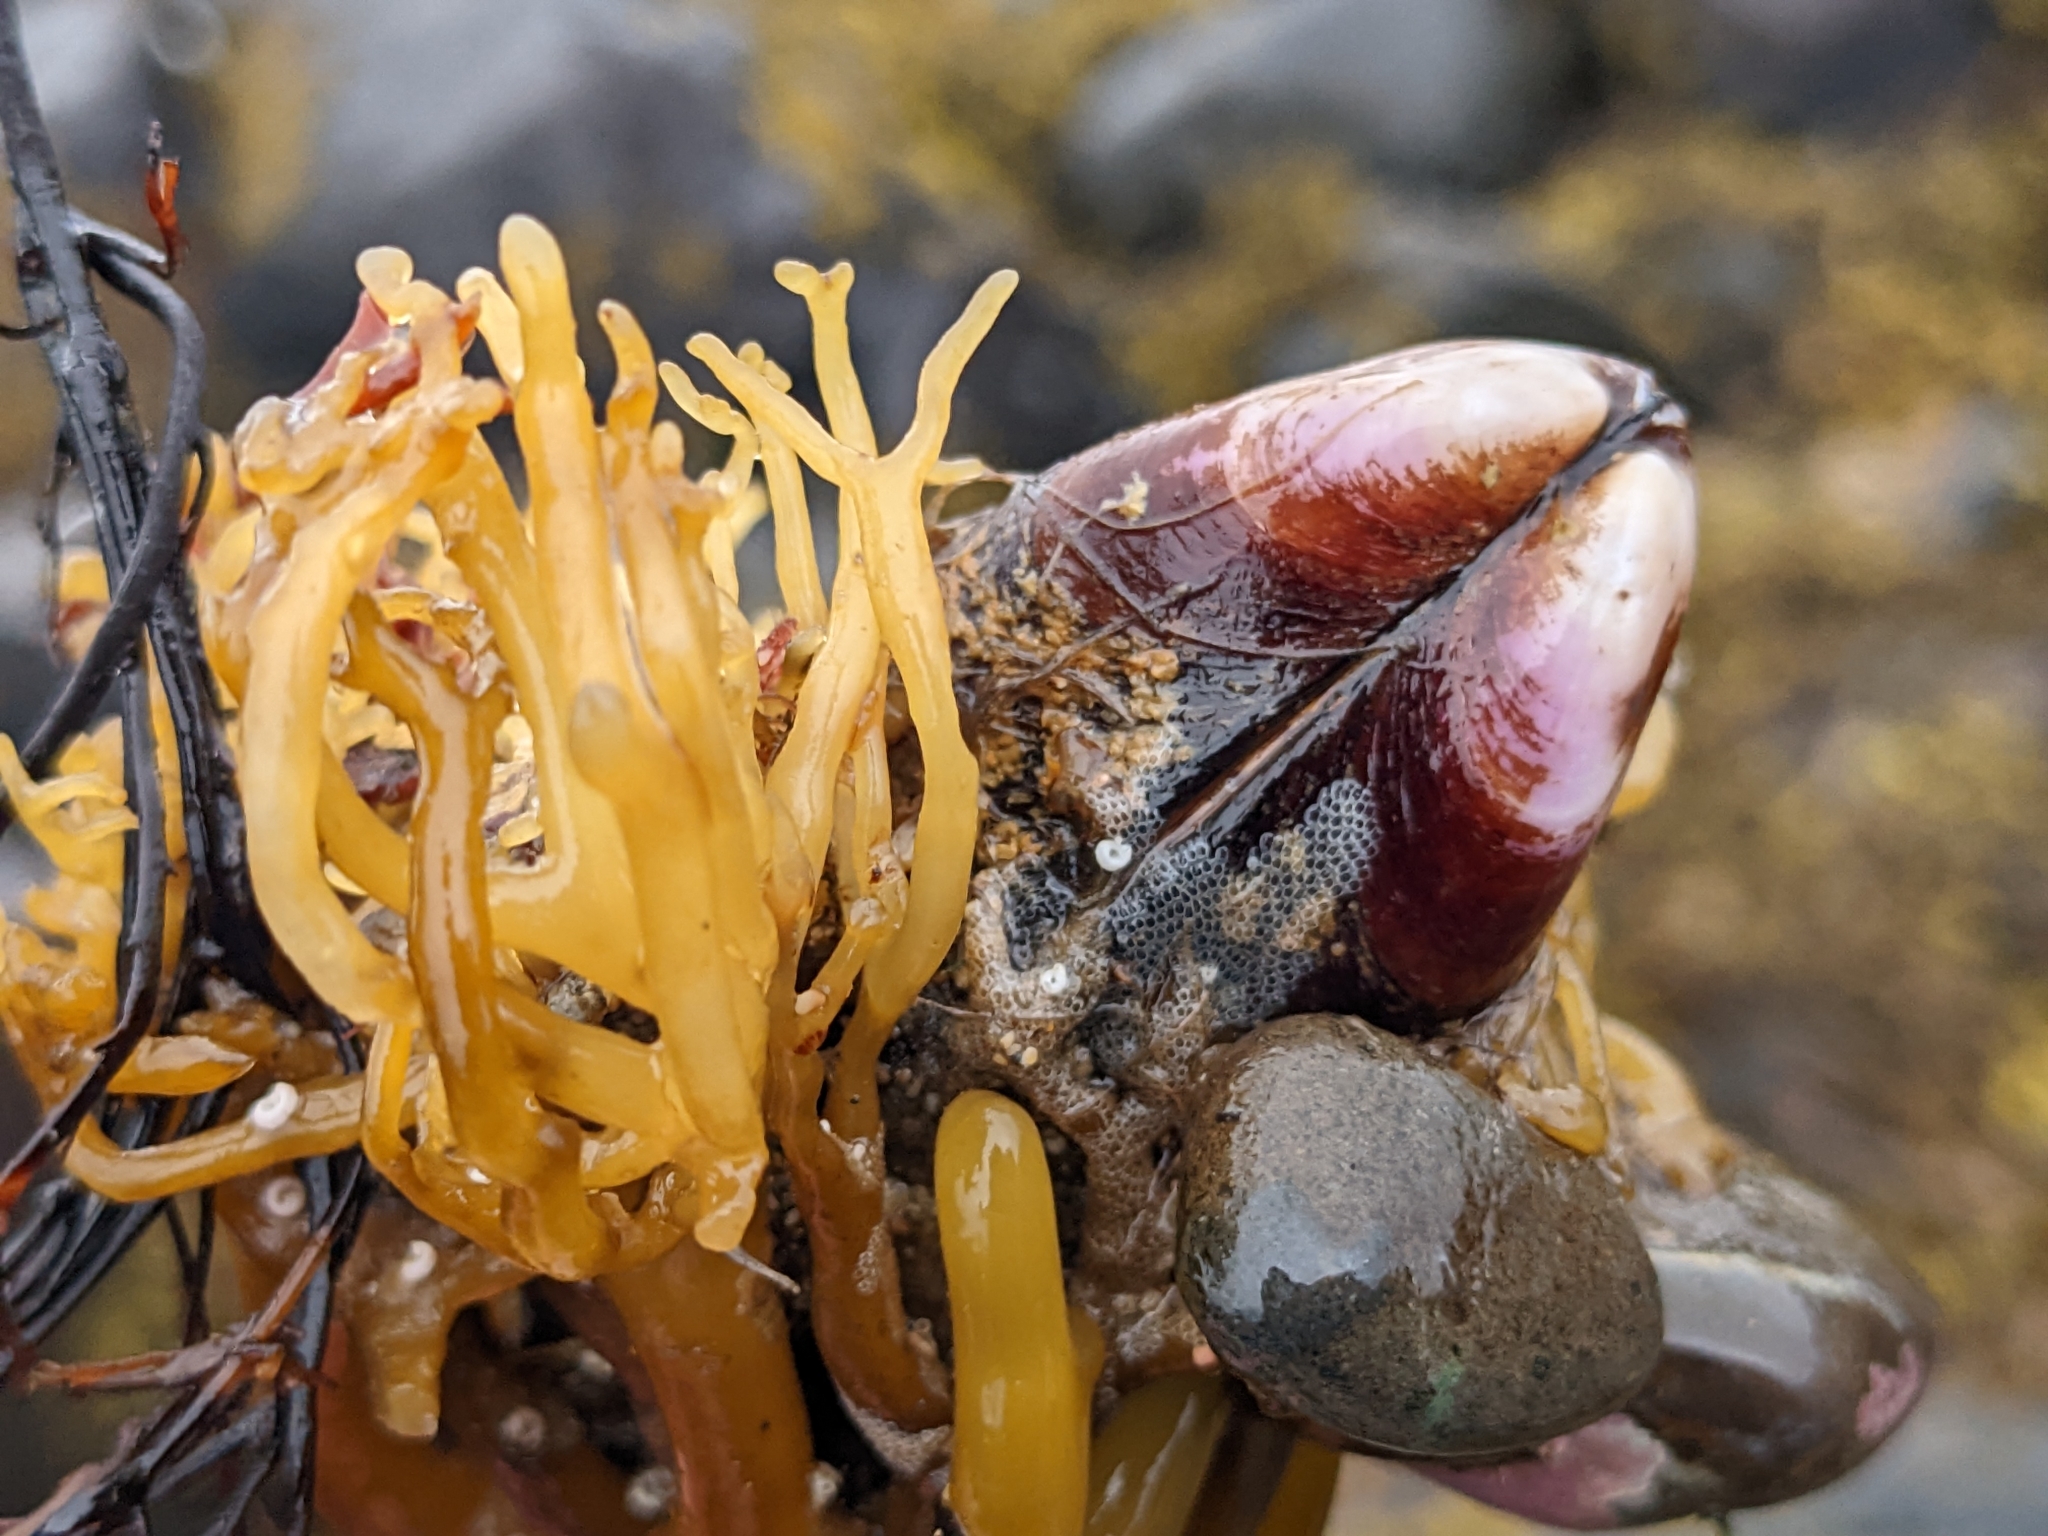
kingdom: Animalia
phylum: Mollusca
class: Bivalvia
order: Mytilida
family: Mytilidae
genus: Modiolus
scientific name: Modiolus modiolus
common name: Horse-mussel
